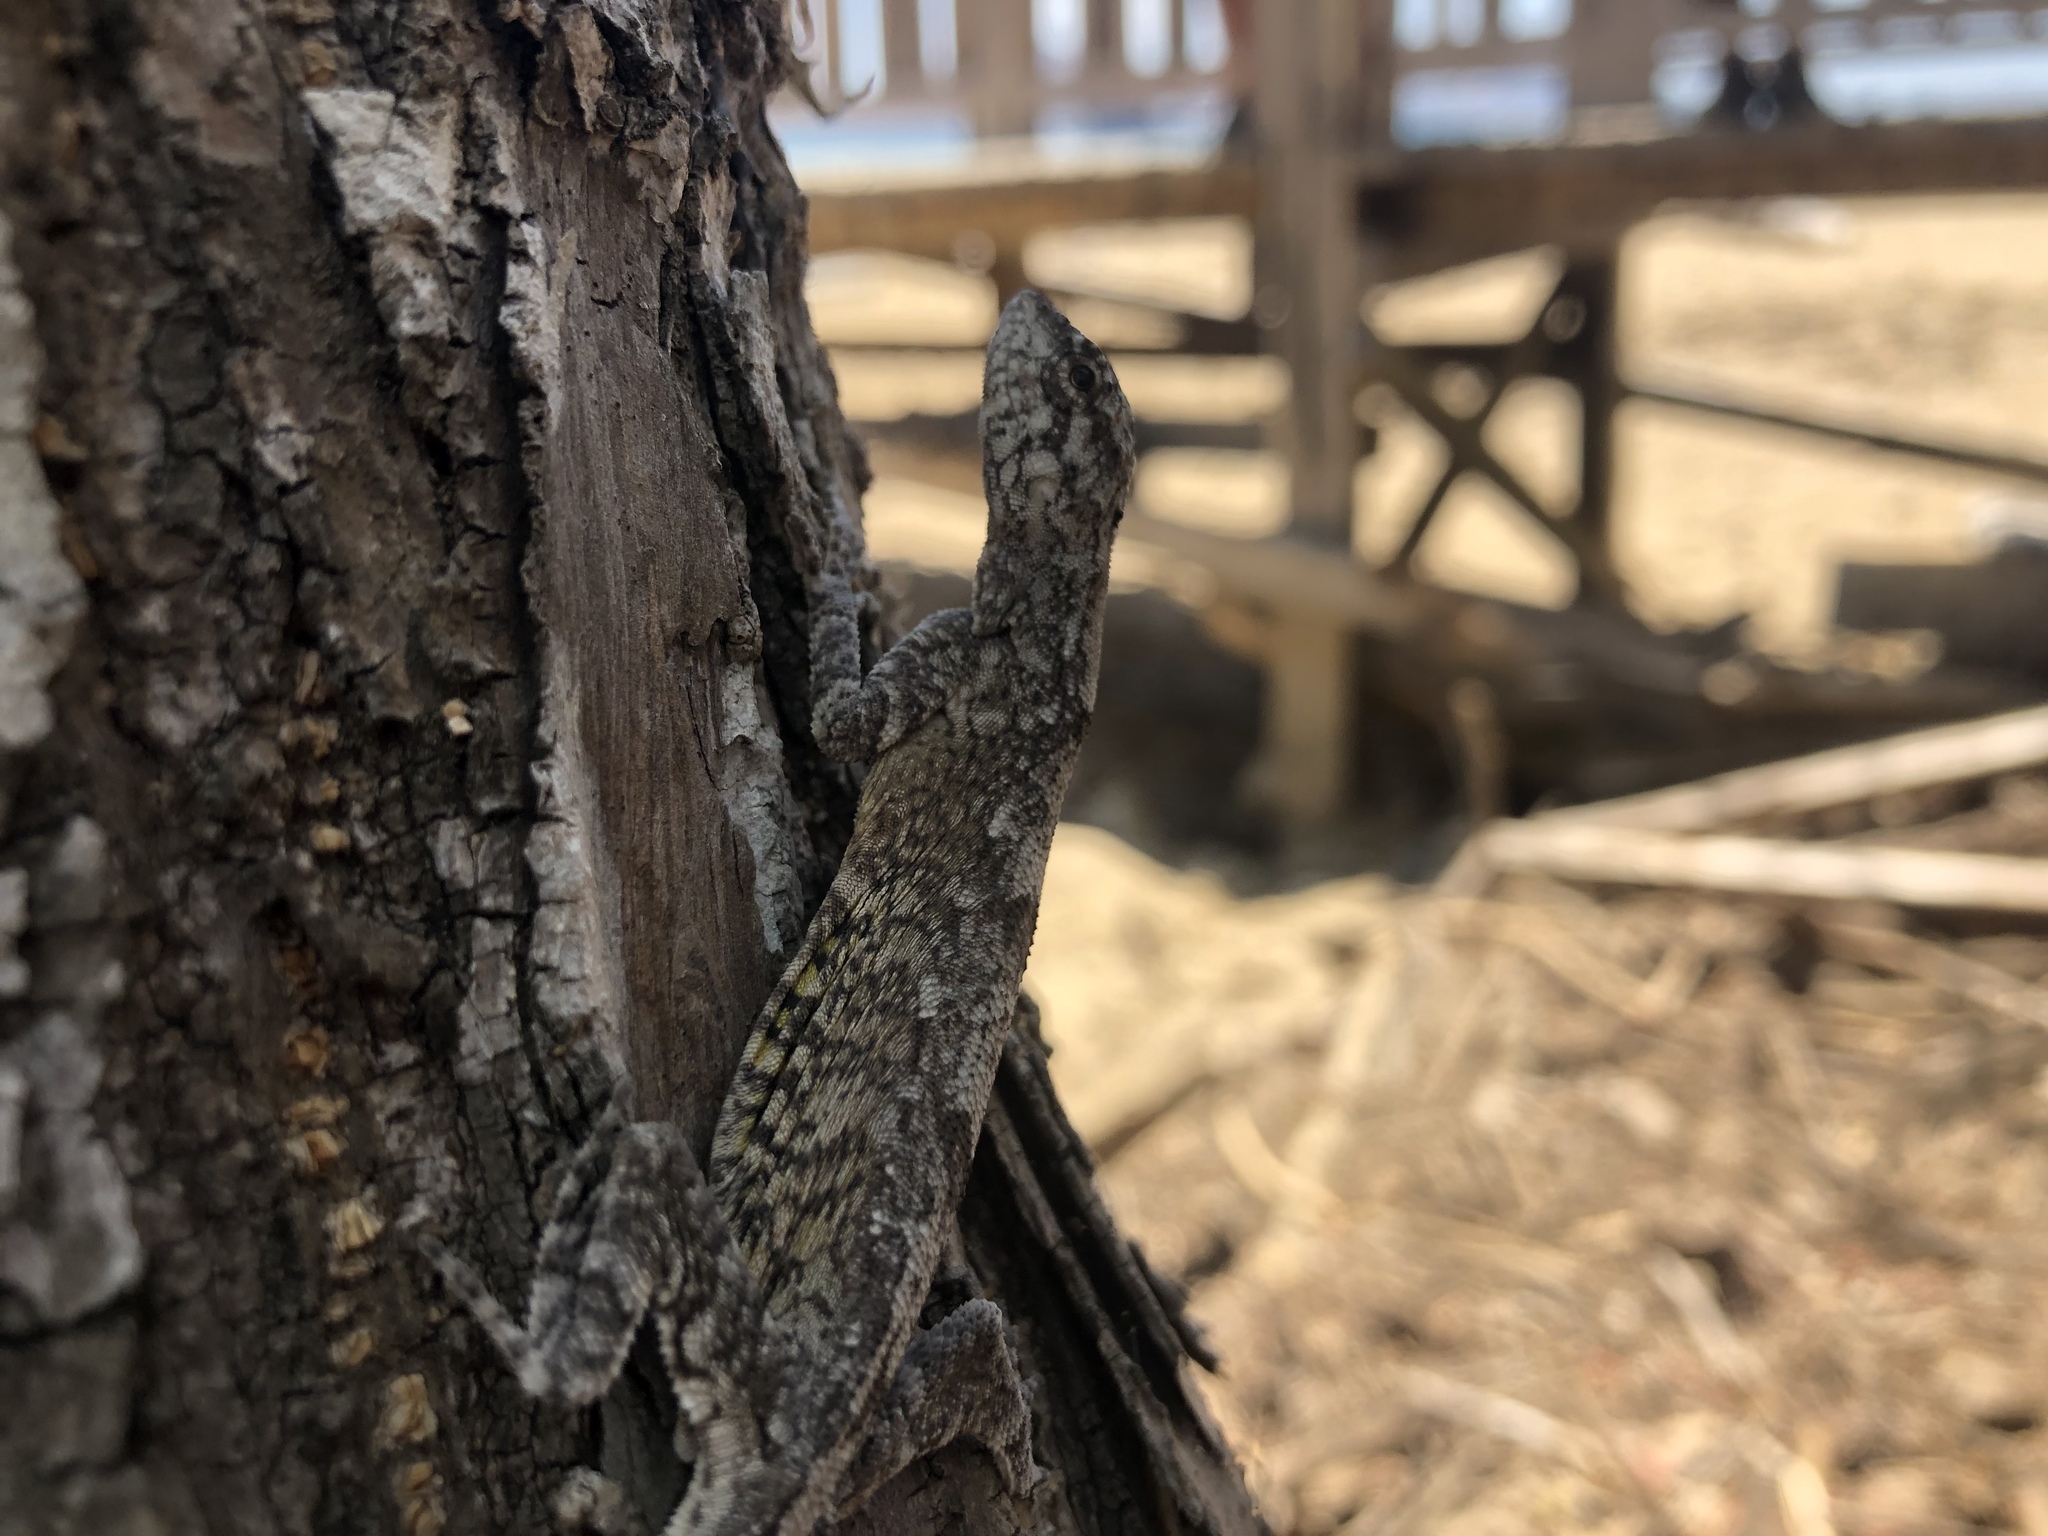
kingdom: Animalia
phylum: Chordata
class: Squamata
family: Agamidae
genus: Draco
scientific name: Draco boschmai
